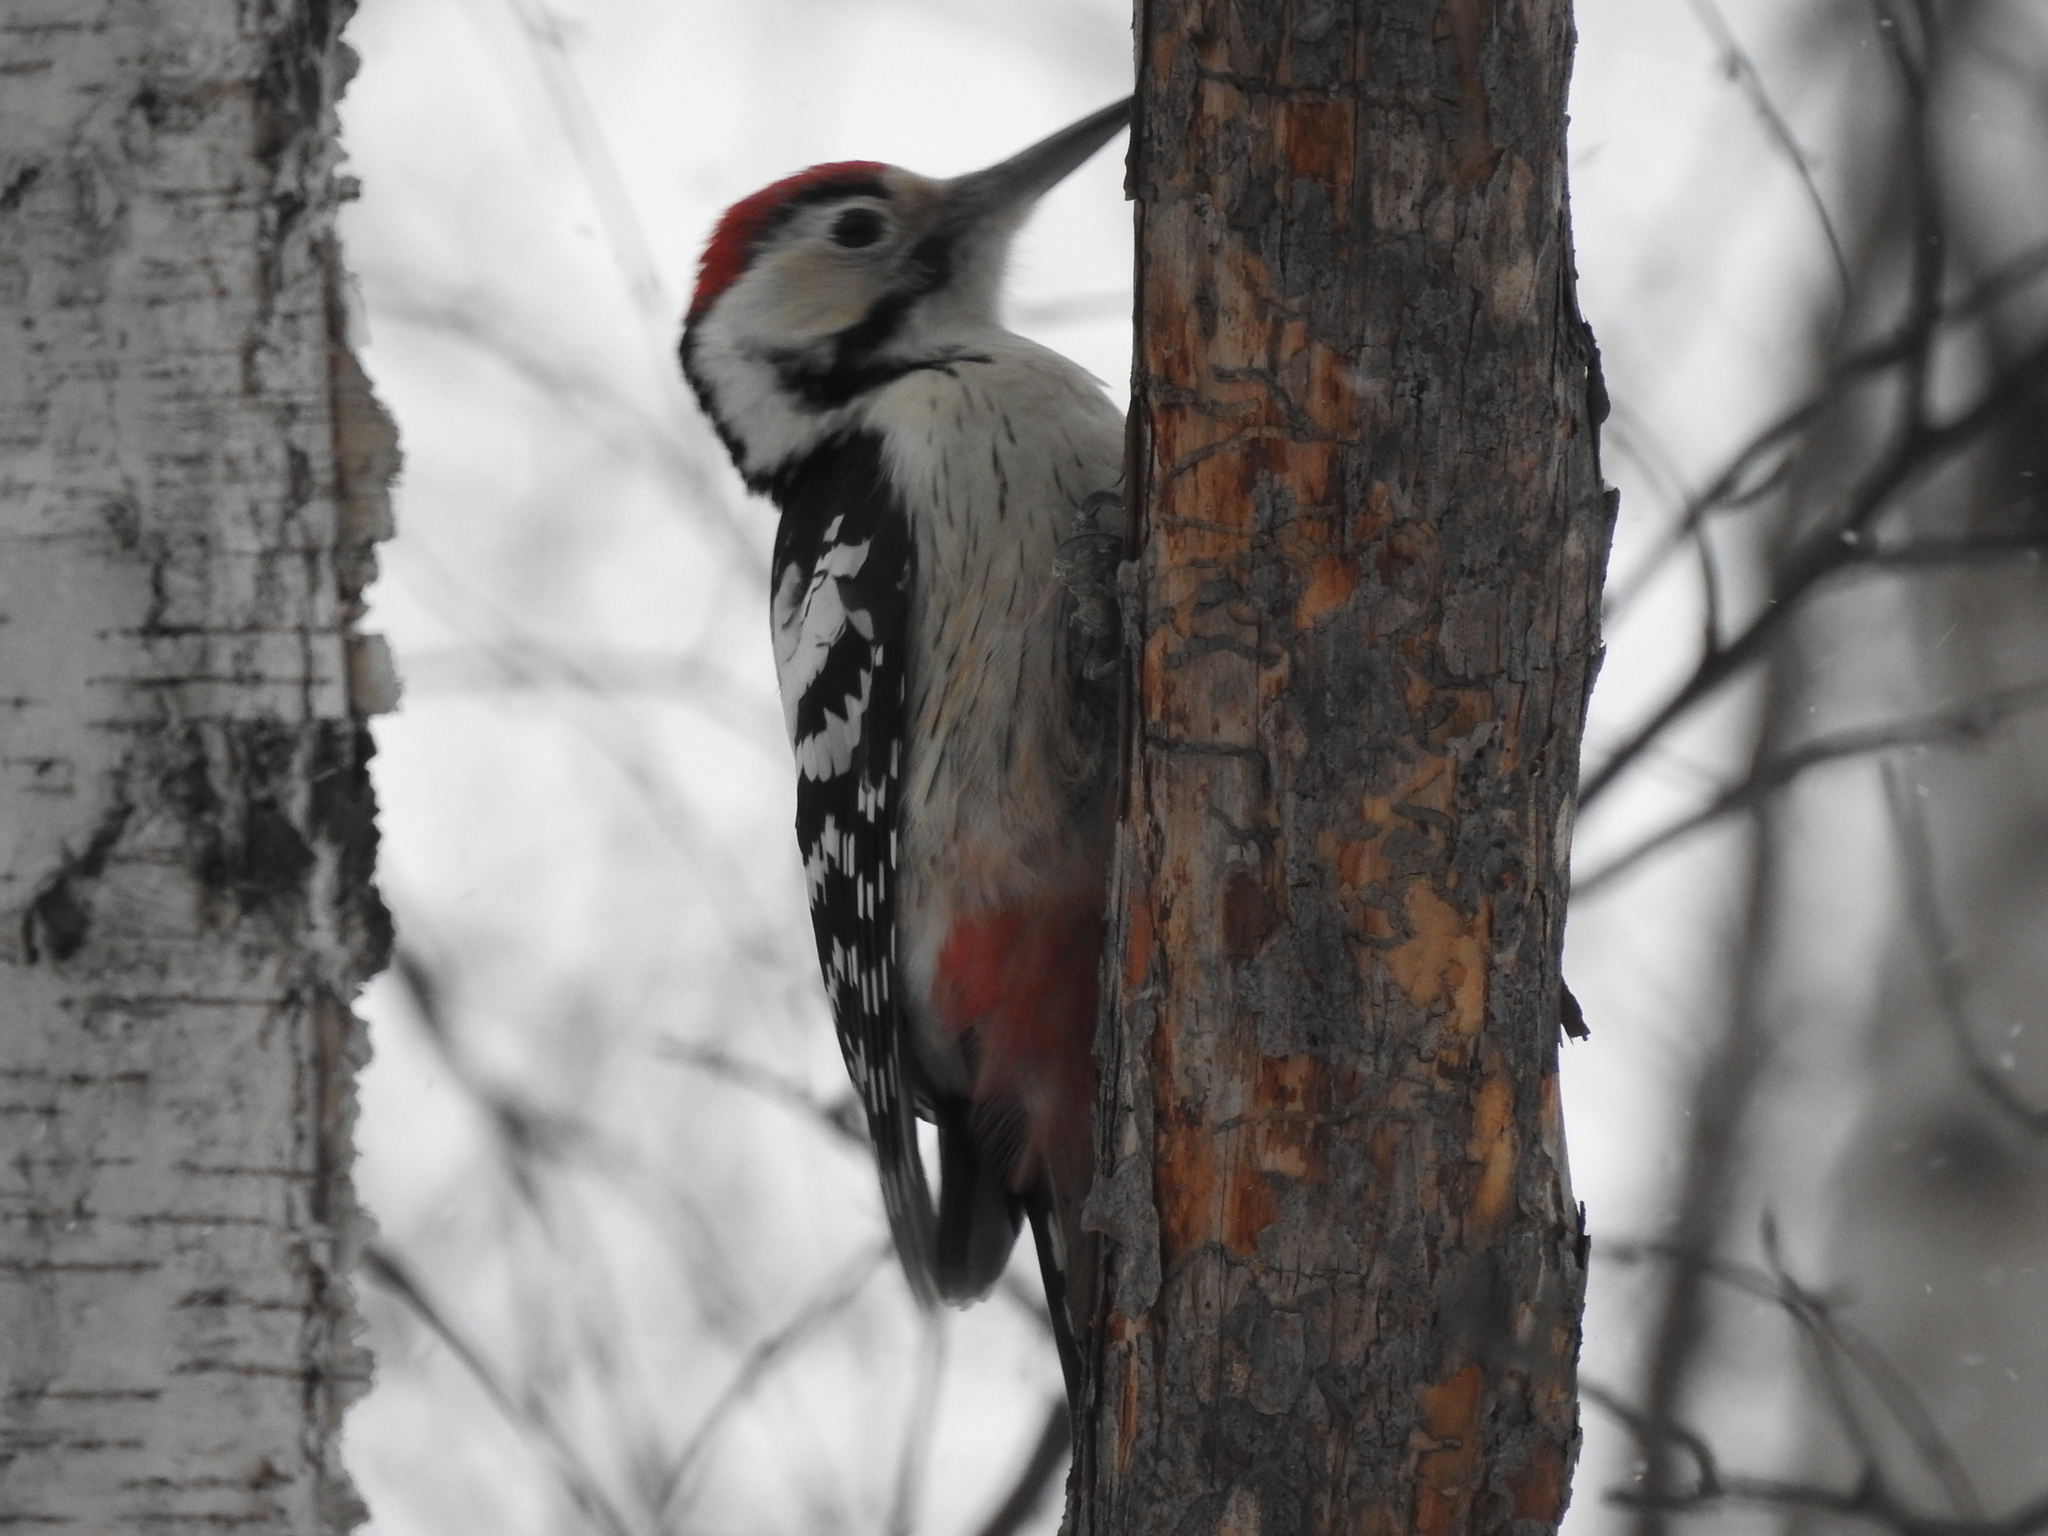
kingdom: Animalia
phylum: Chordata
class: Aves
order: Piciformes
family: Picidae
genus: Dendrocopos
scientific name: Dendrocopos leucotos
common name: White-backed woodpecker
